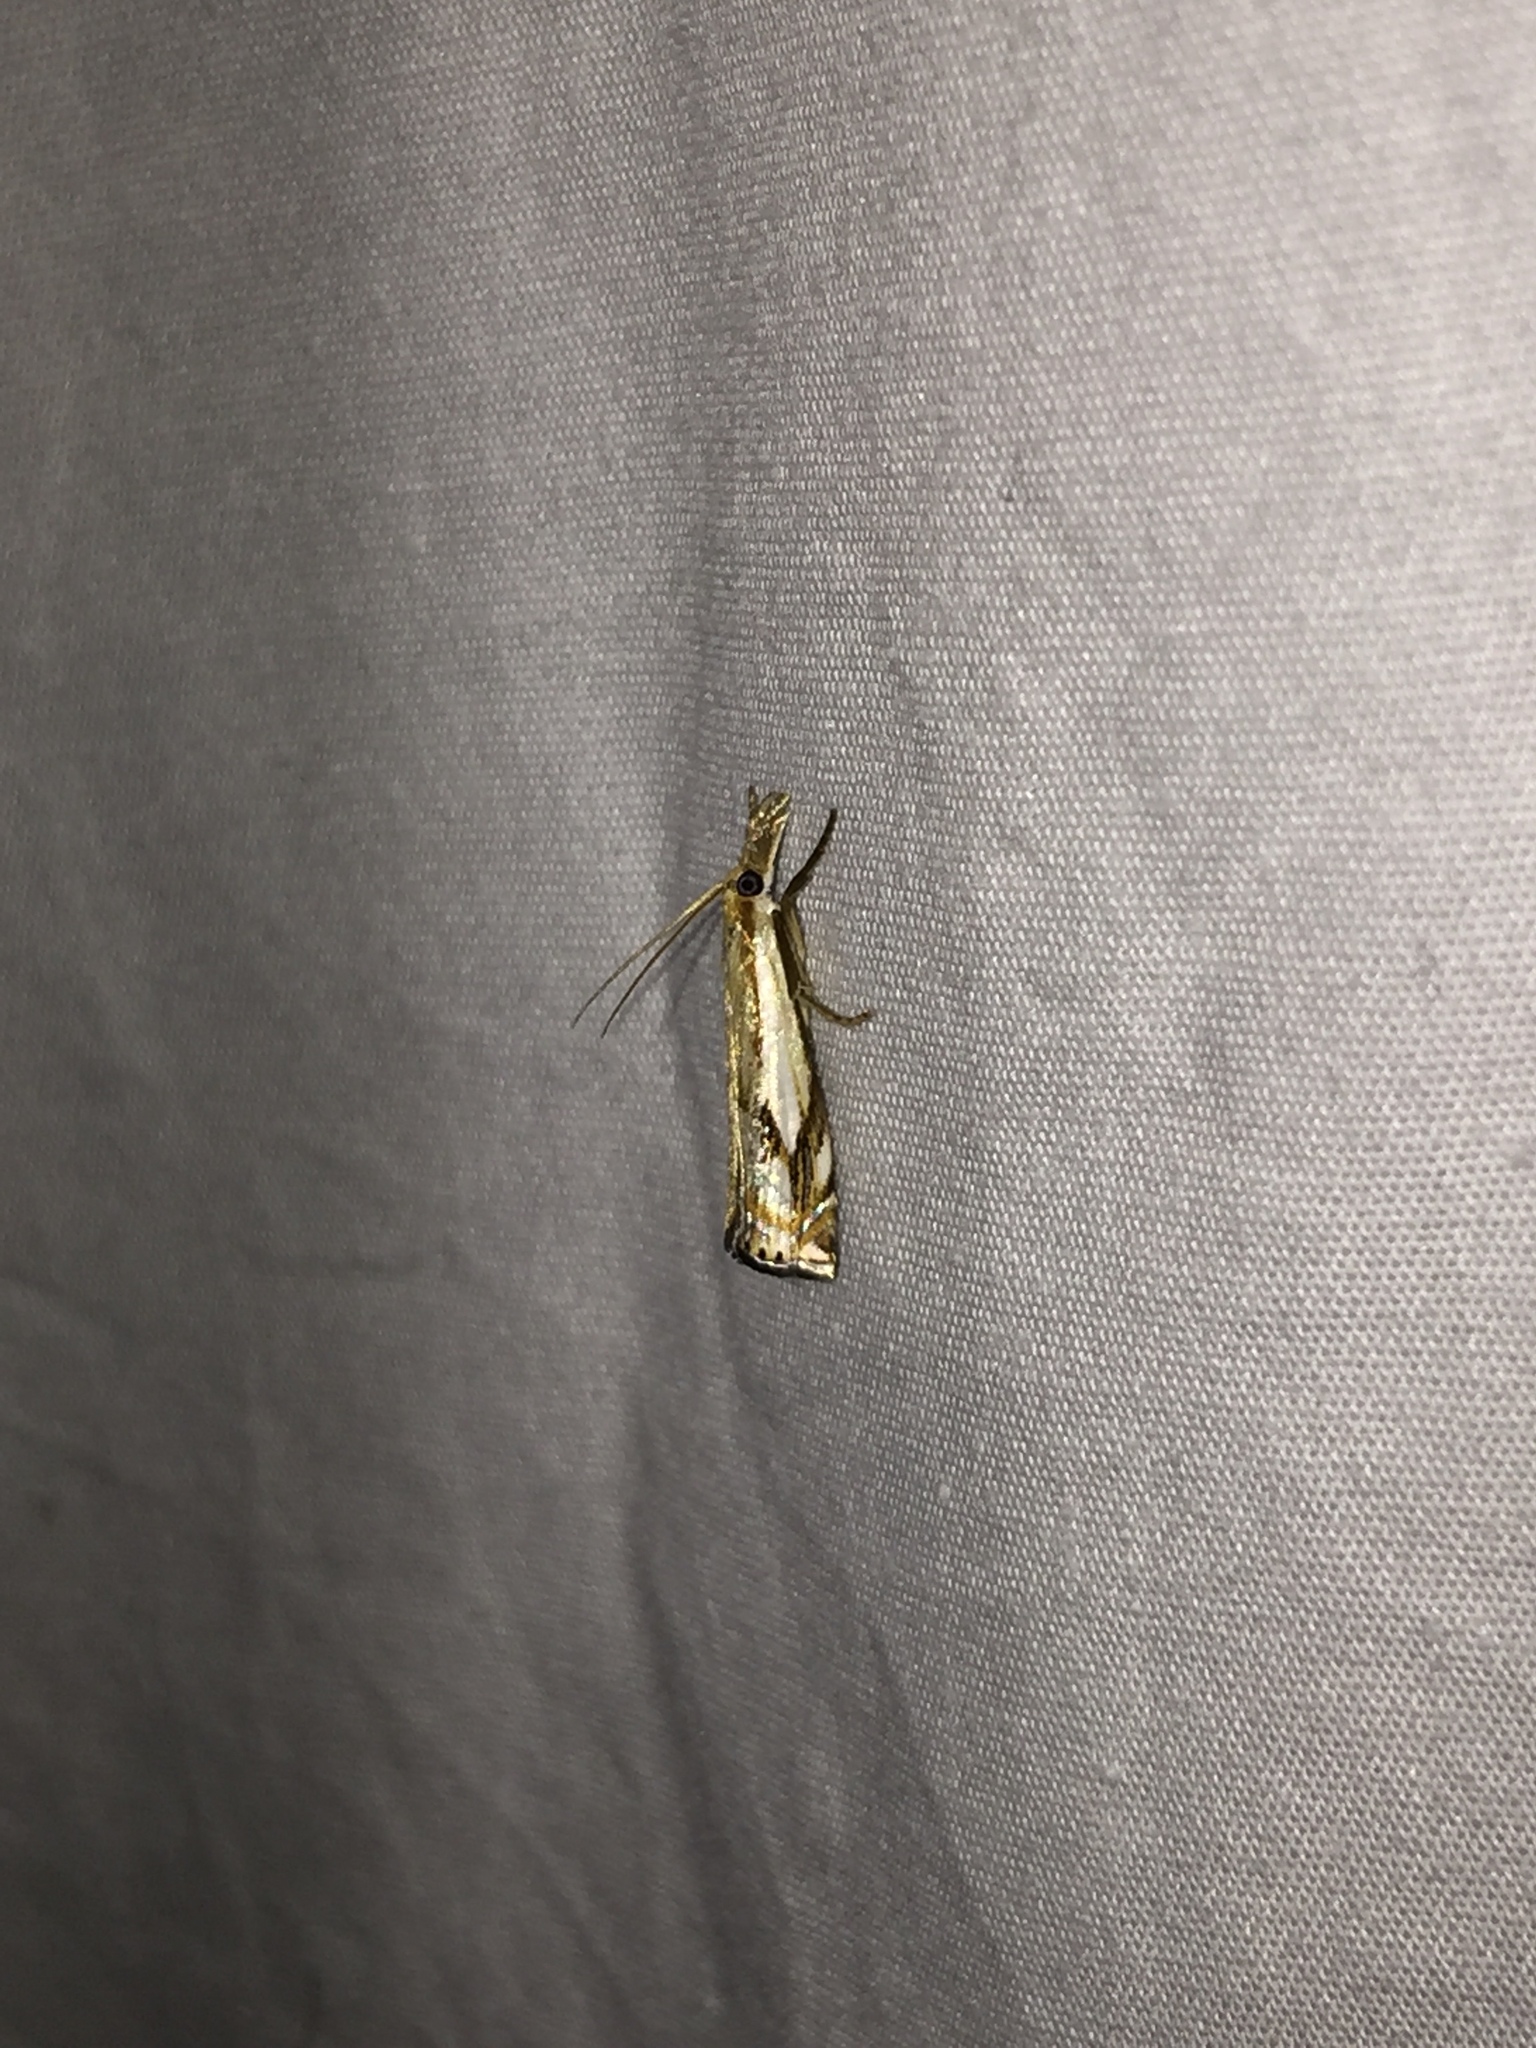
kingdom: Animalia
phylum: Arthropoda
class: Insecta
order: Lepidoptera
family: Crambidae
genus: Crambus
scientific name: Crambus agitatellus
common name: Double-banded grass-veneer
